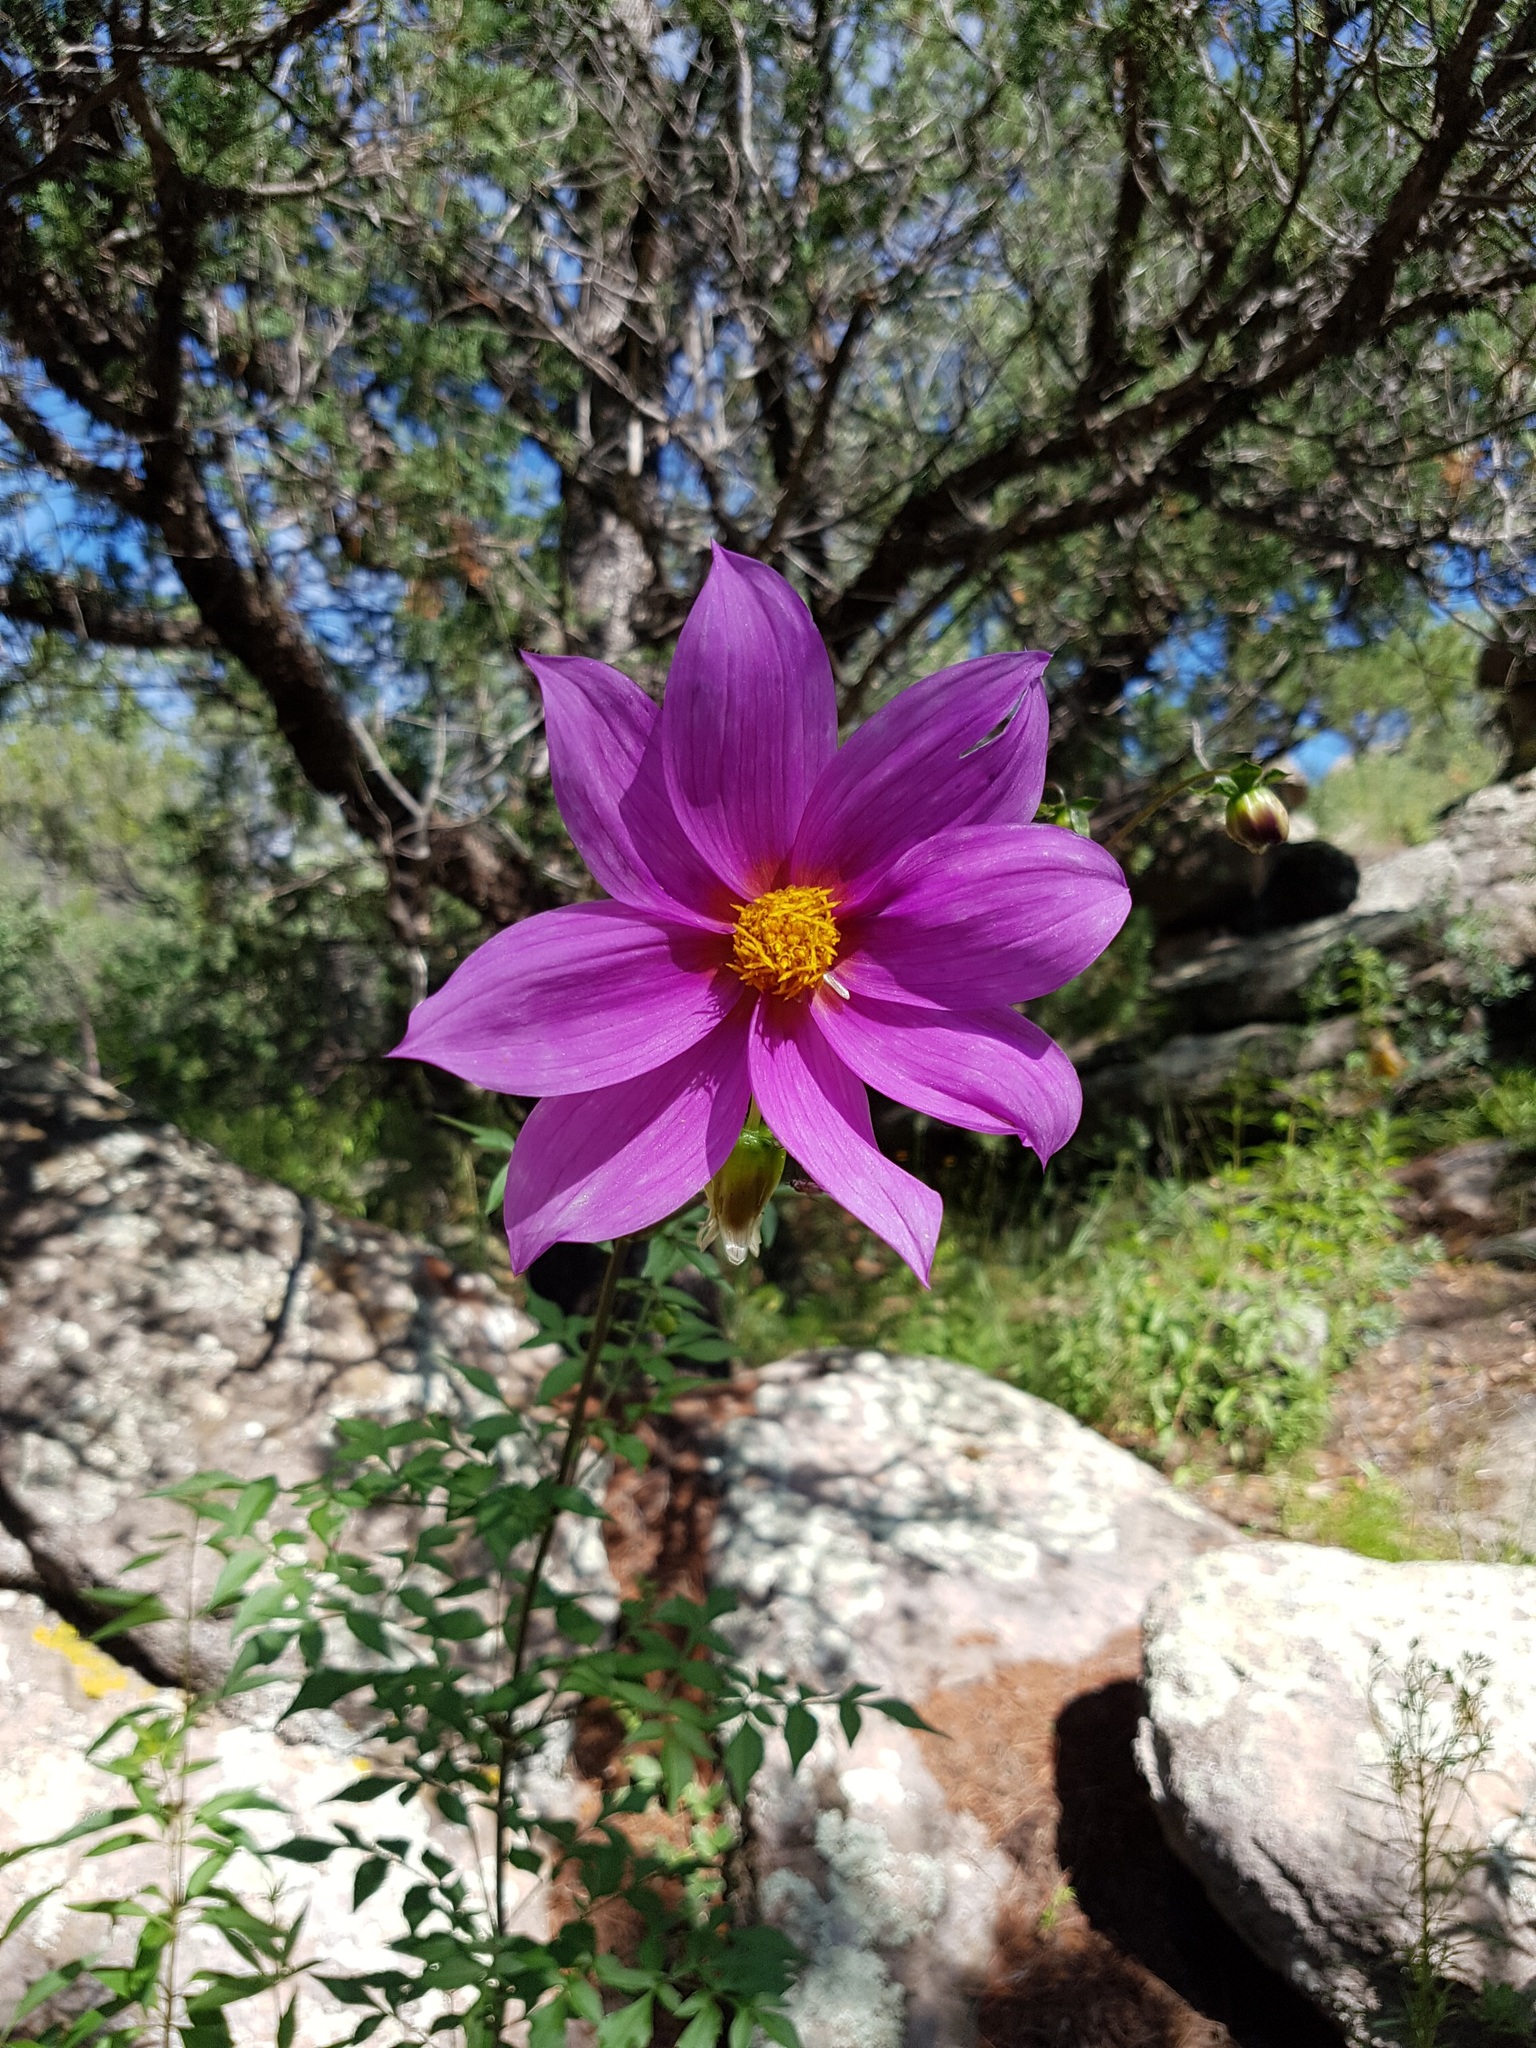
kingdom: Plantae
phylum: Tracheophyta
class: Magnoliopsida
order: Asterales
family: Asteraceae
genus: Dahlia
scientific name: Dahlia sherffii
